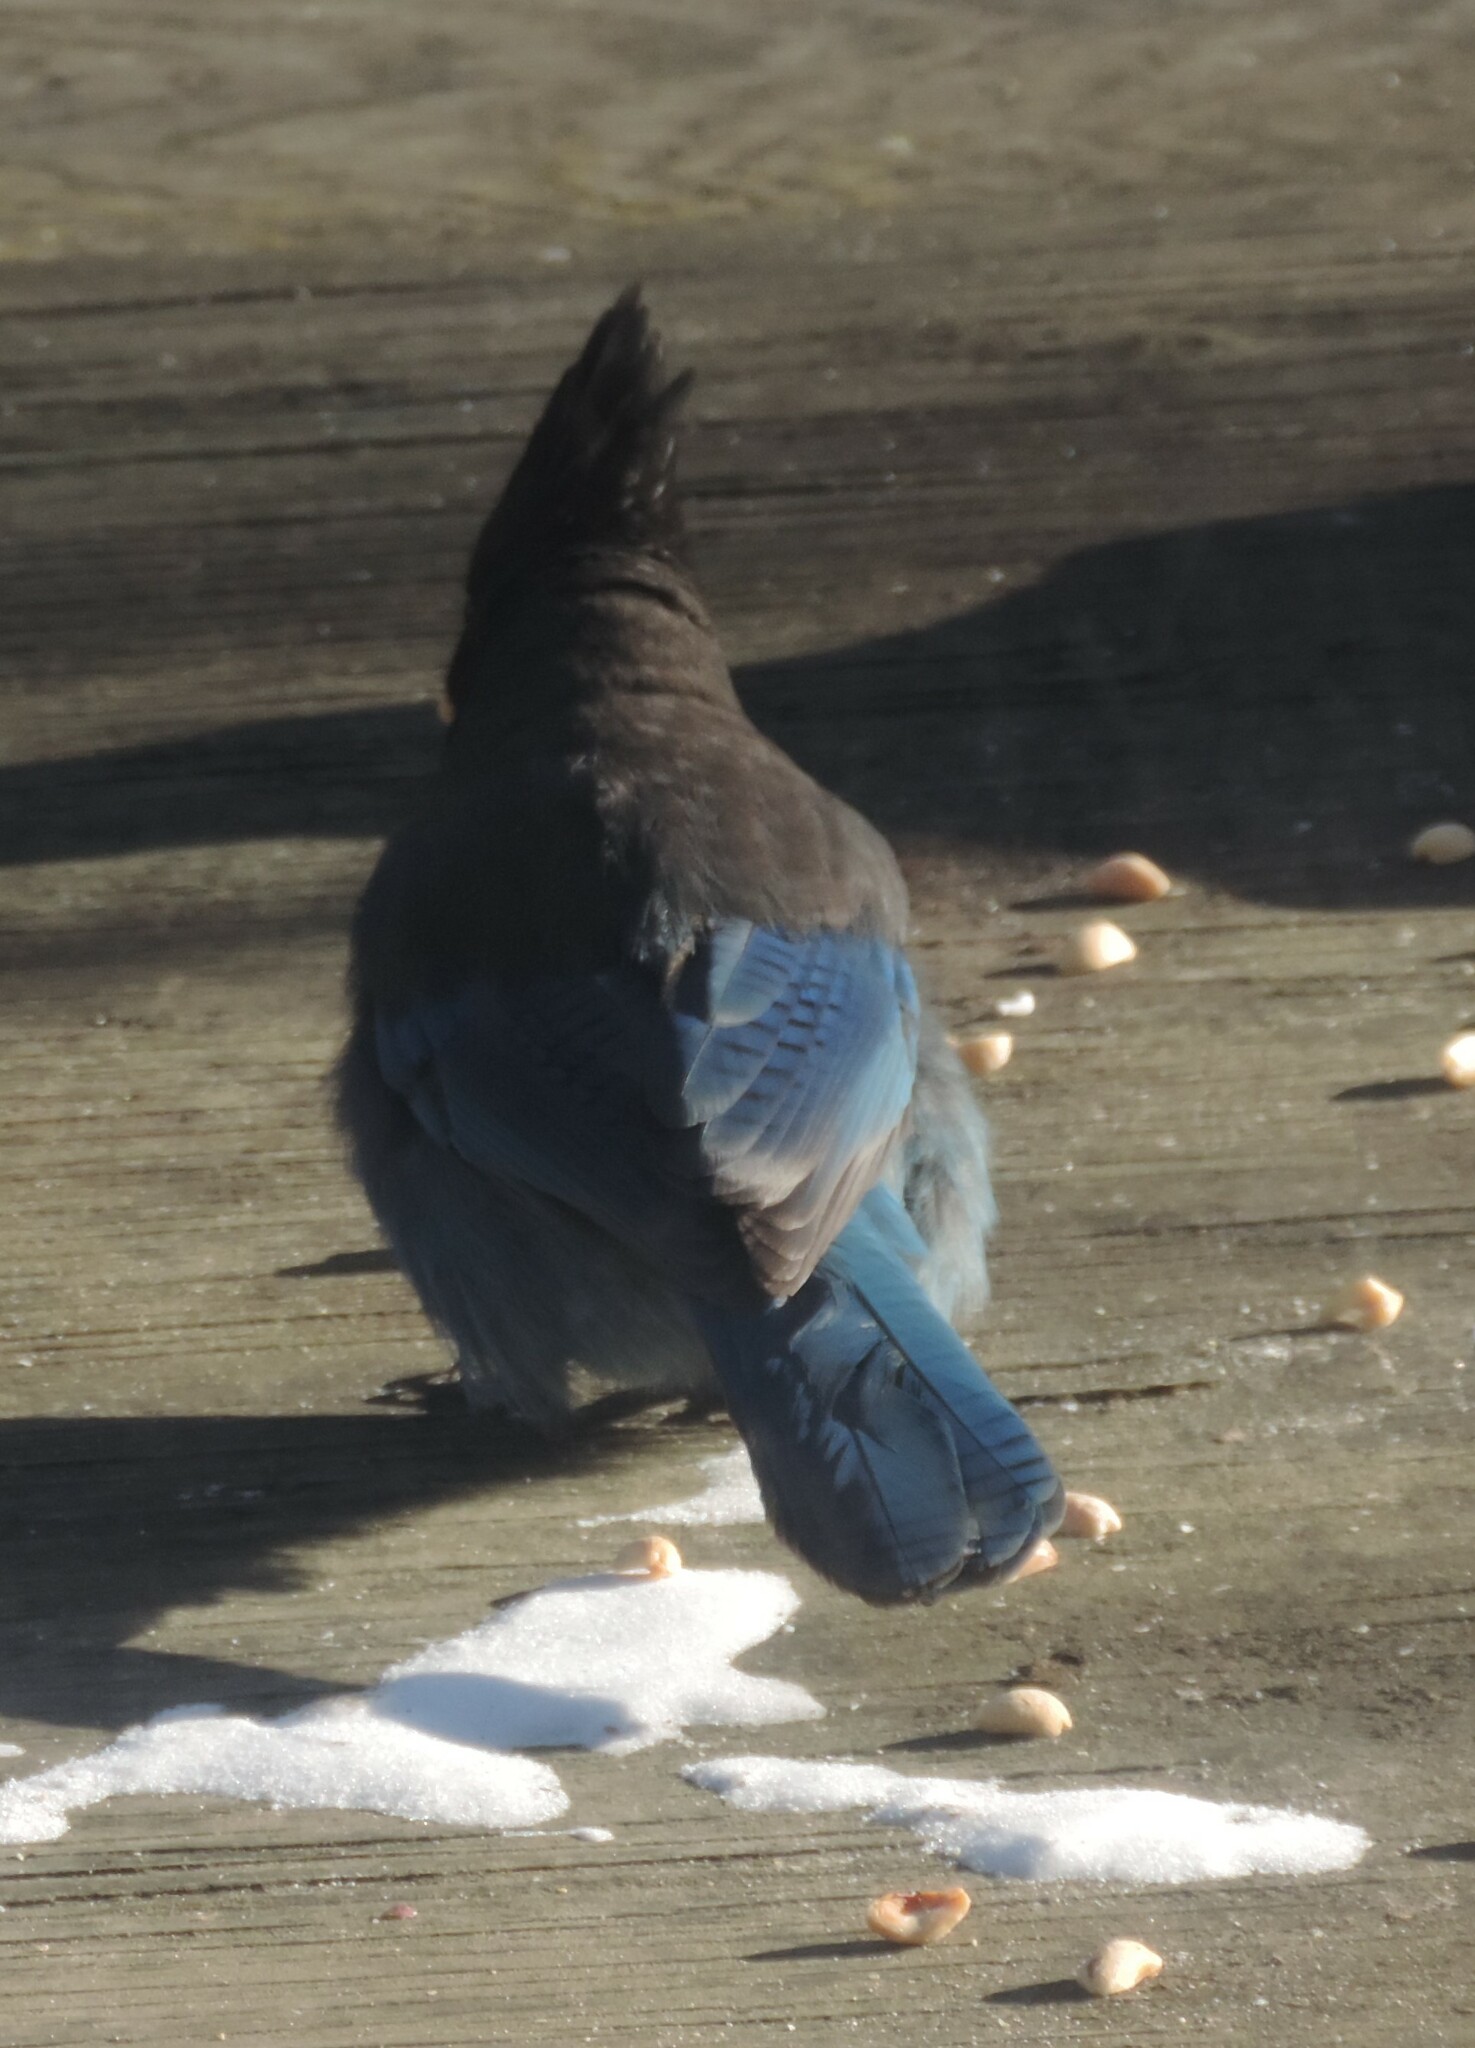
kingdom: Animalia
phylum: Chordata
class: Aves
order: Passeriformes
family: Corvidae
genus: Cyanocitta
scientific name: Cyanocitta stelleri
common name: Steller's jay
